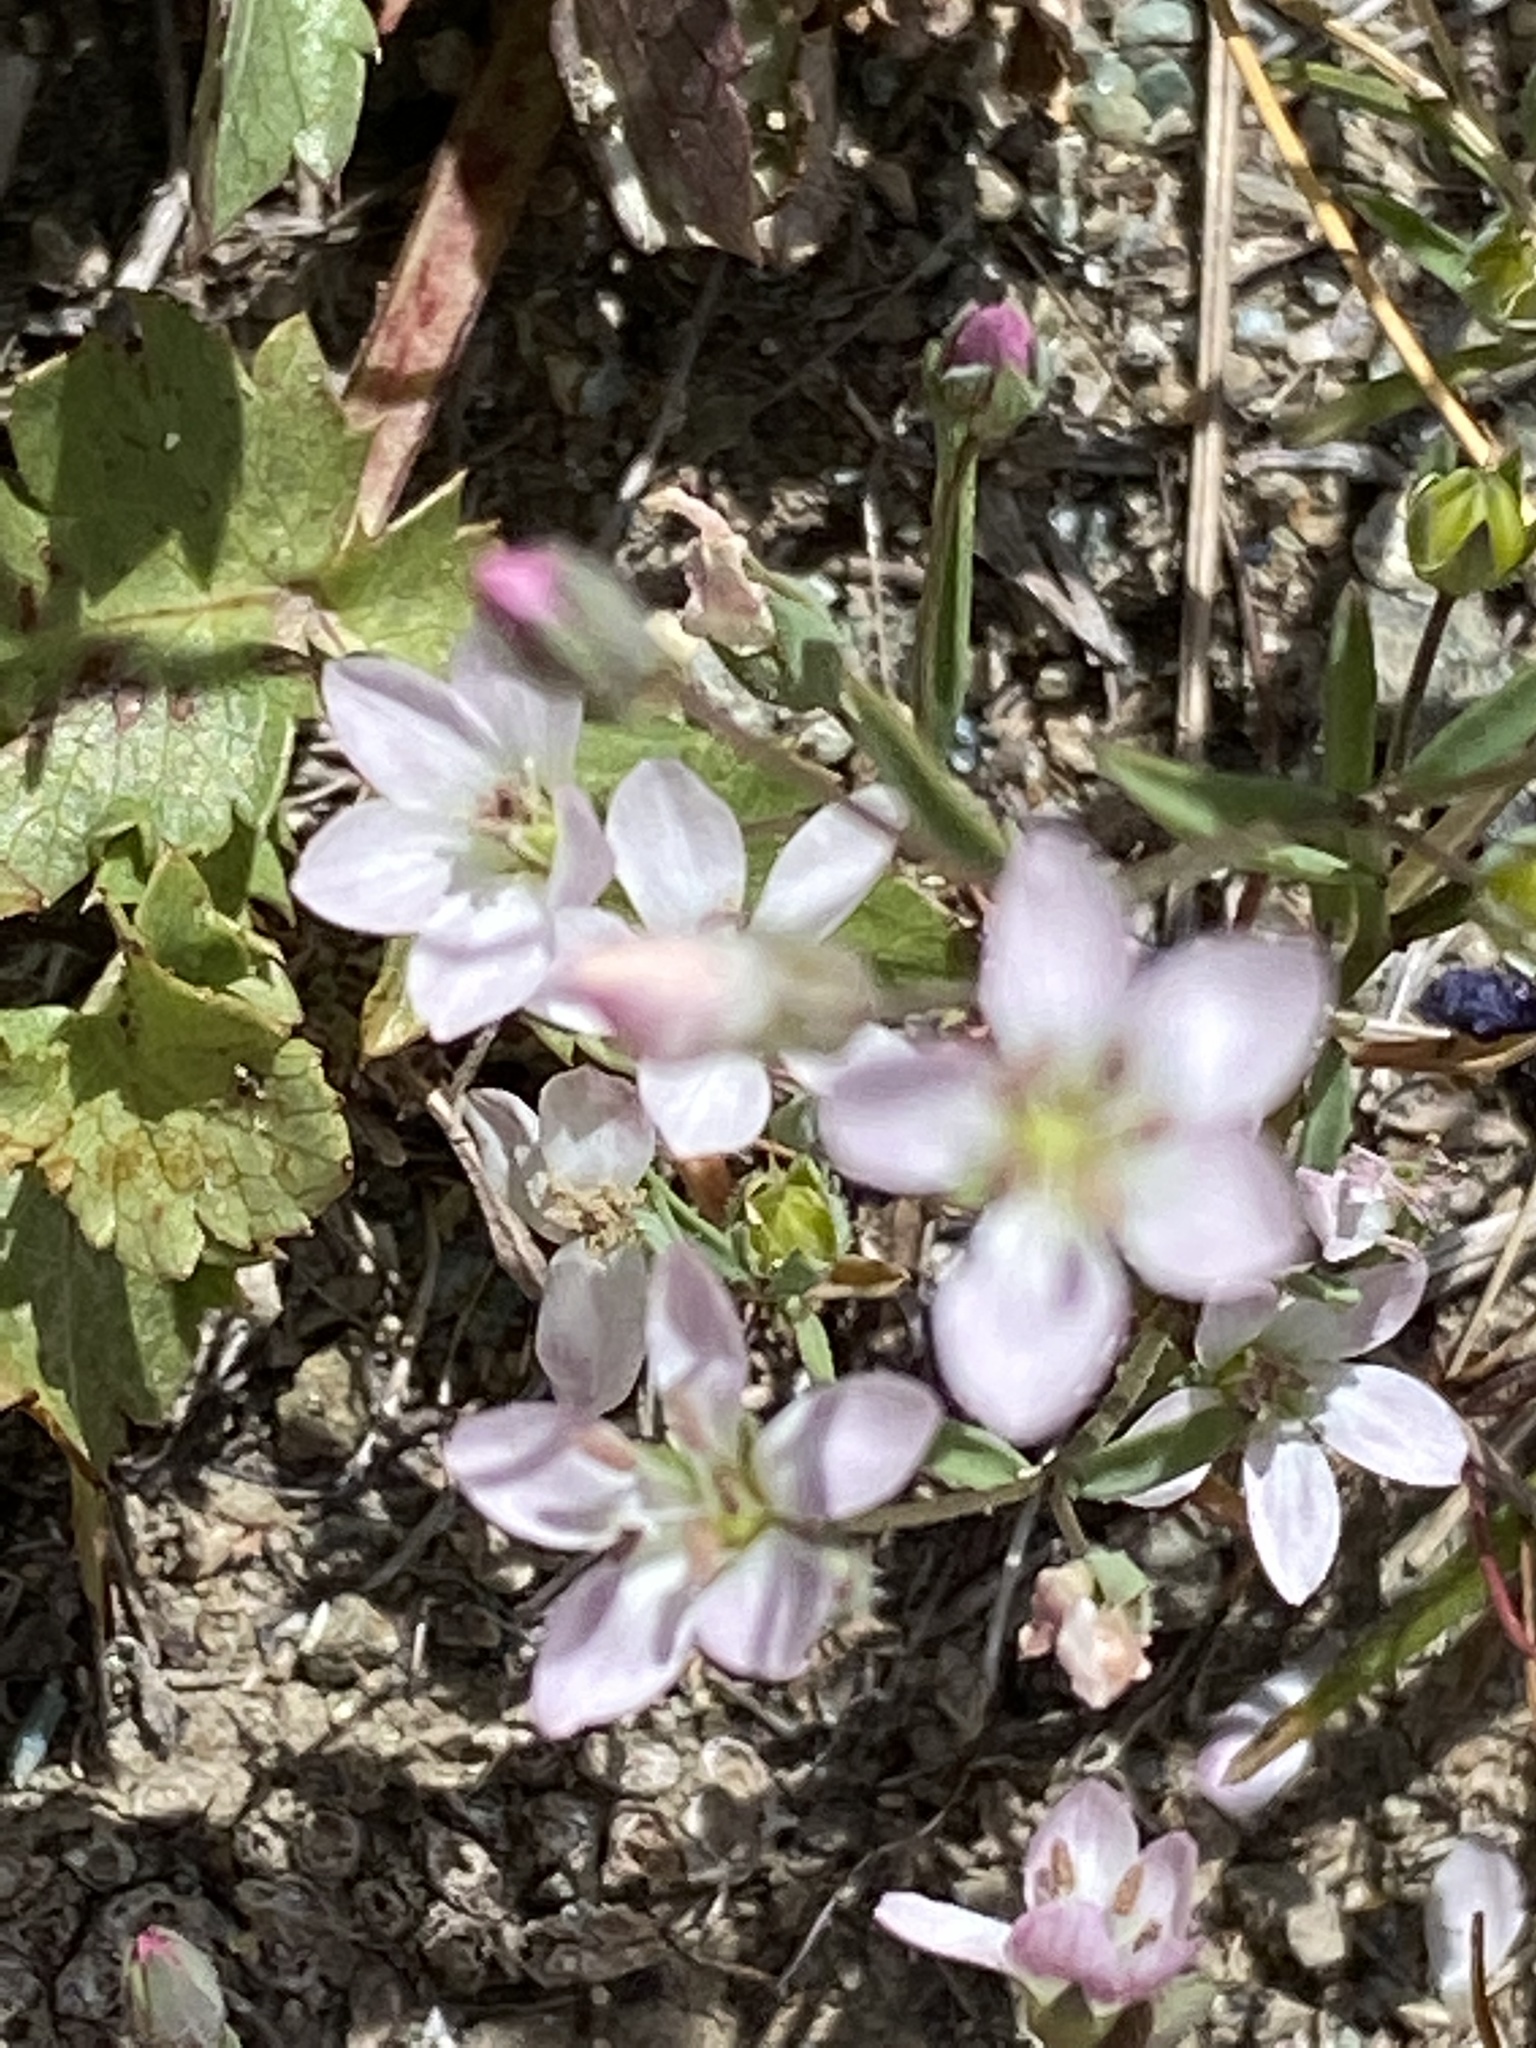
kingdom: Plantae
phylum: Tracheophyta
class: Magnoliopsida
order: Malpighiales
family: Linaceae
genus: Hesperolinon
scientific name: Hesperolinon congestum
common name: Marin dwarf-flax
